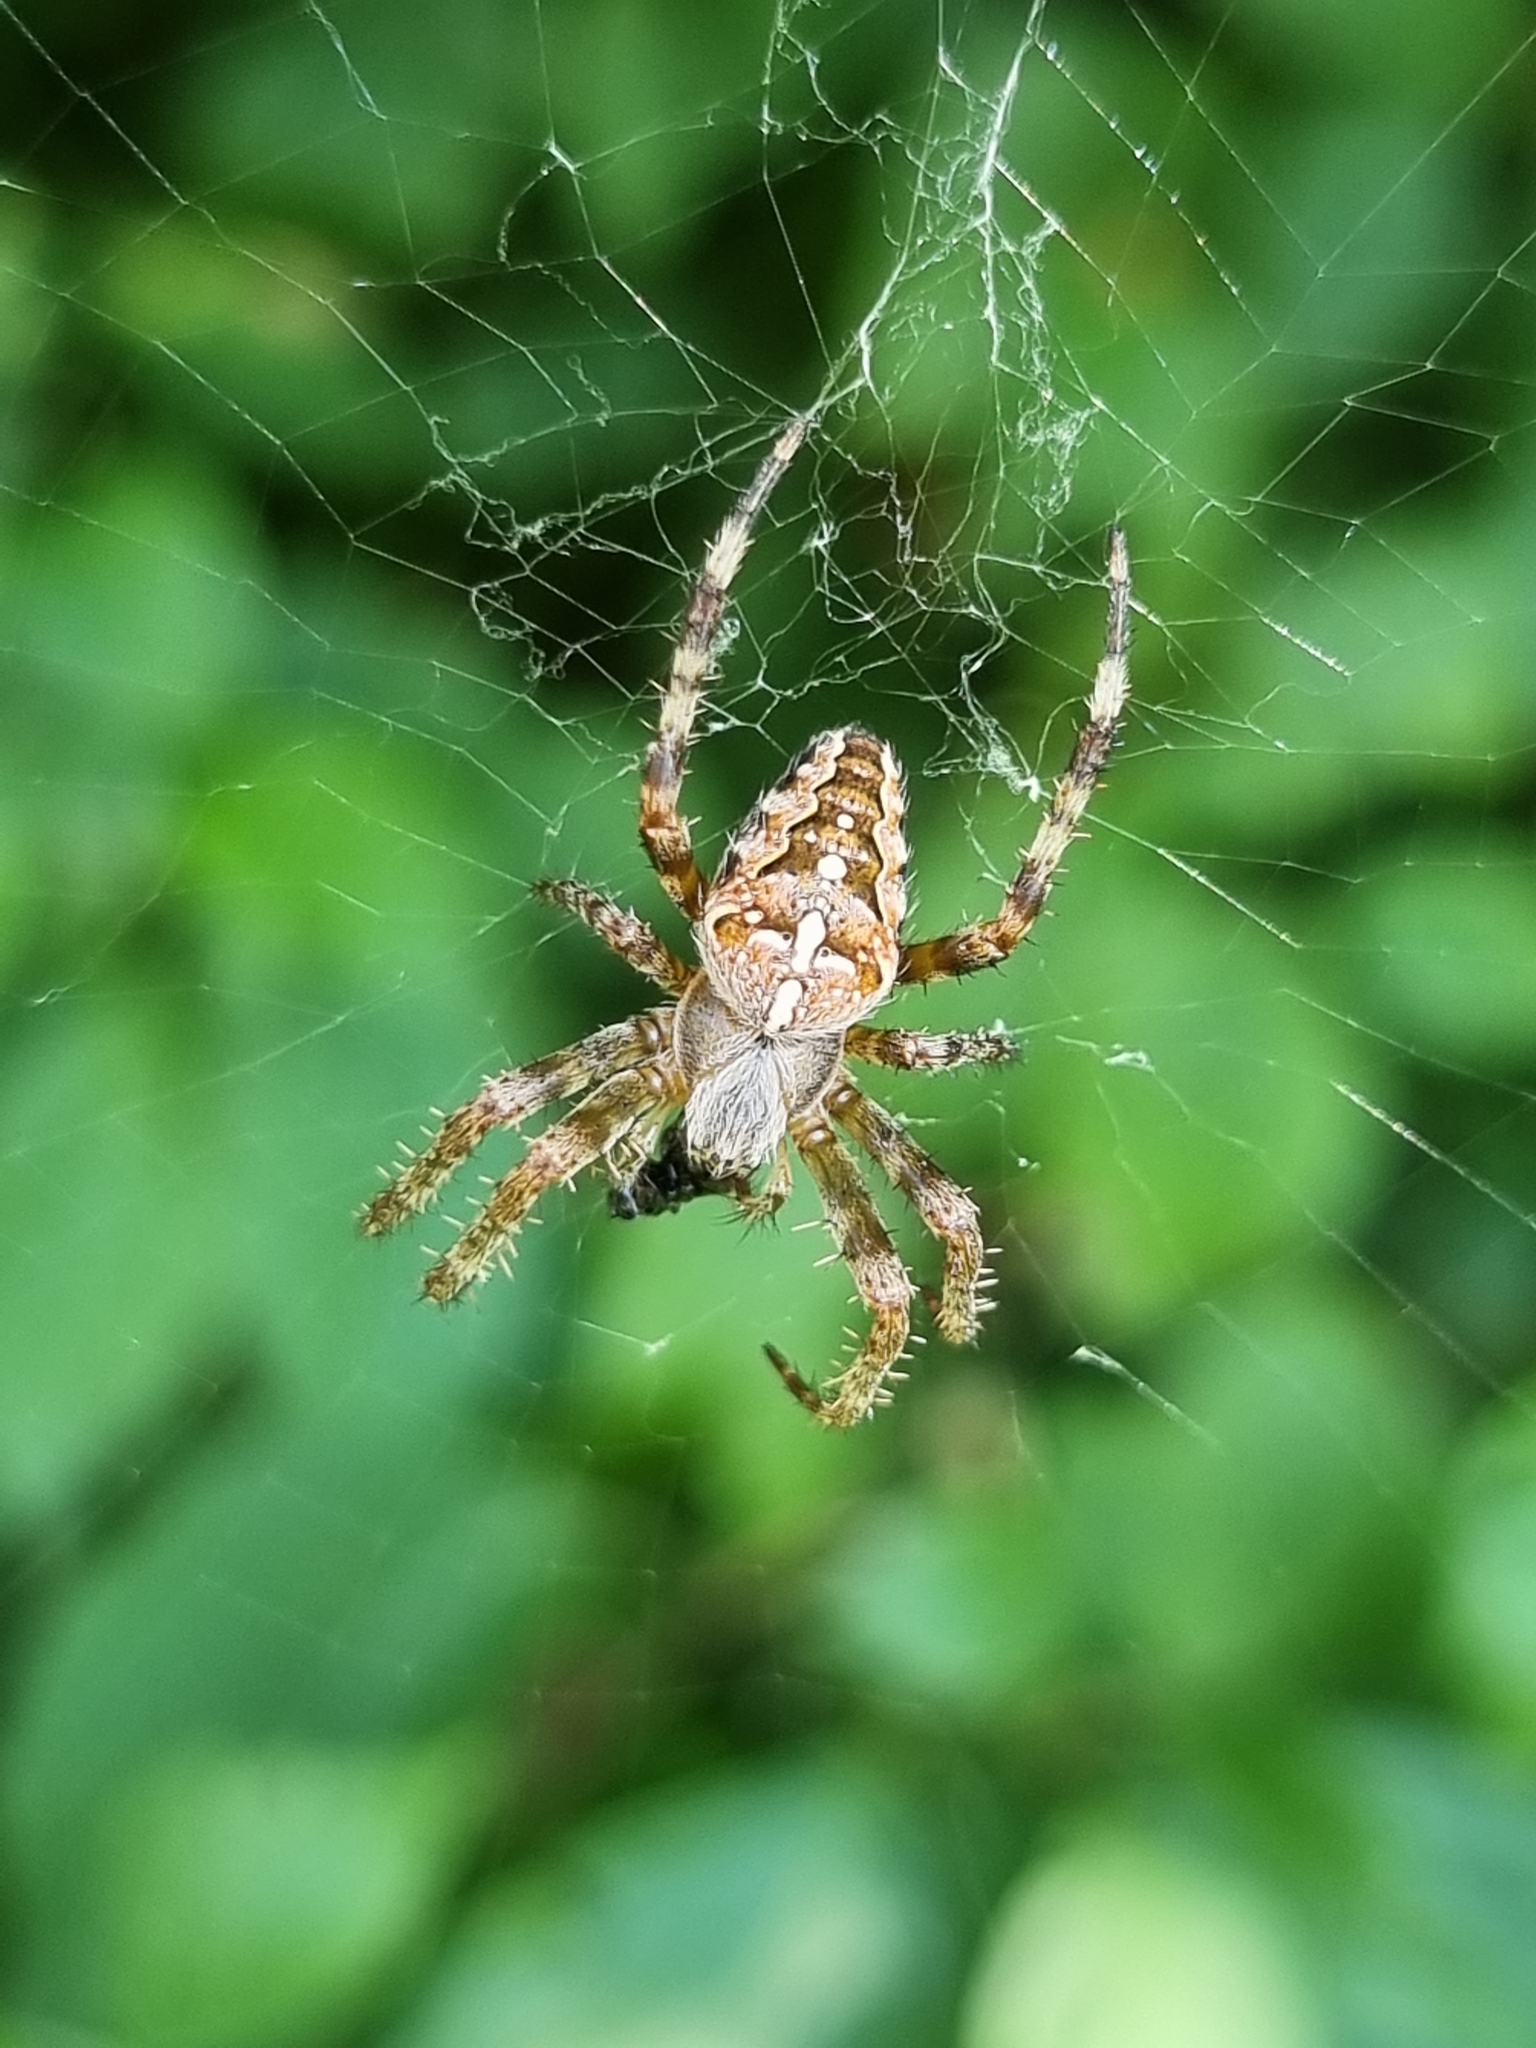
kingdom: Animalia
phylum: Arthropoda
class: Arachnida
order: Araneae
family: Araneidae
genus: Araneus
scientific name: Araneus diadematus
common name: Cross orbweaver
